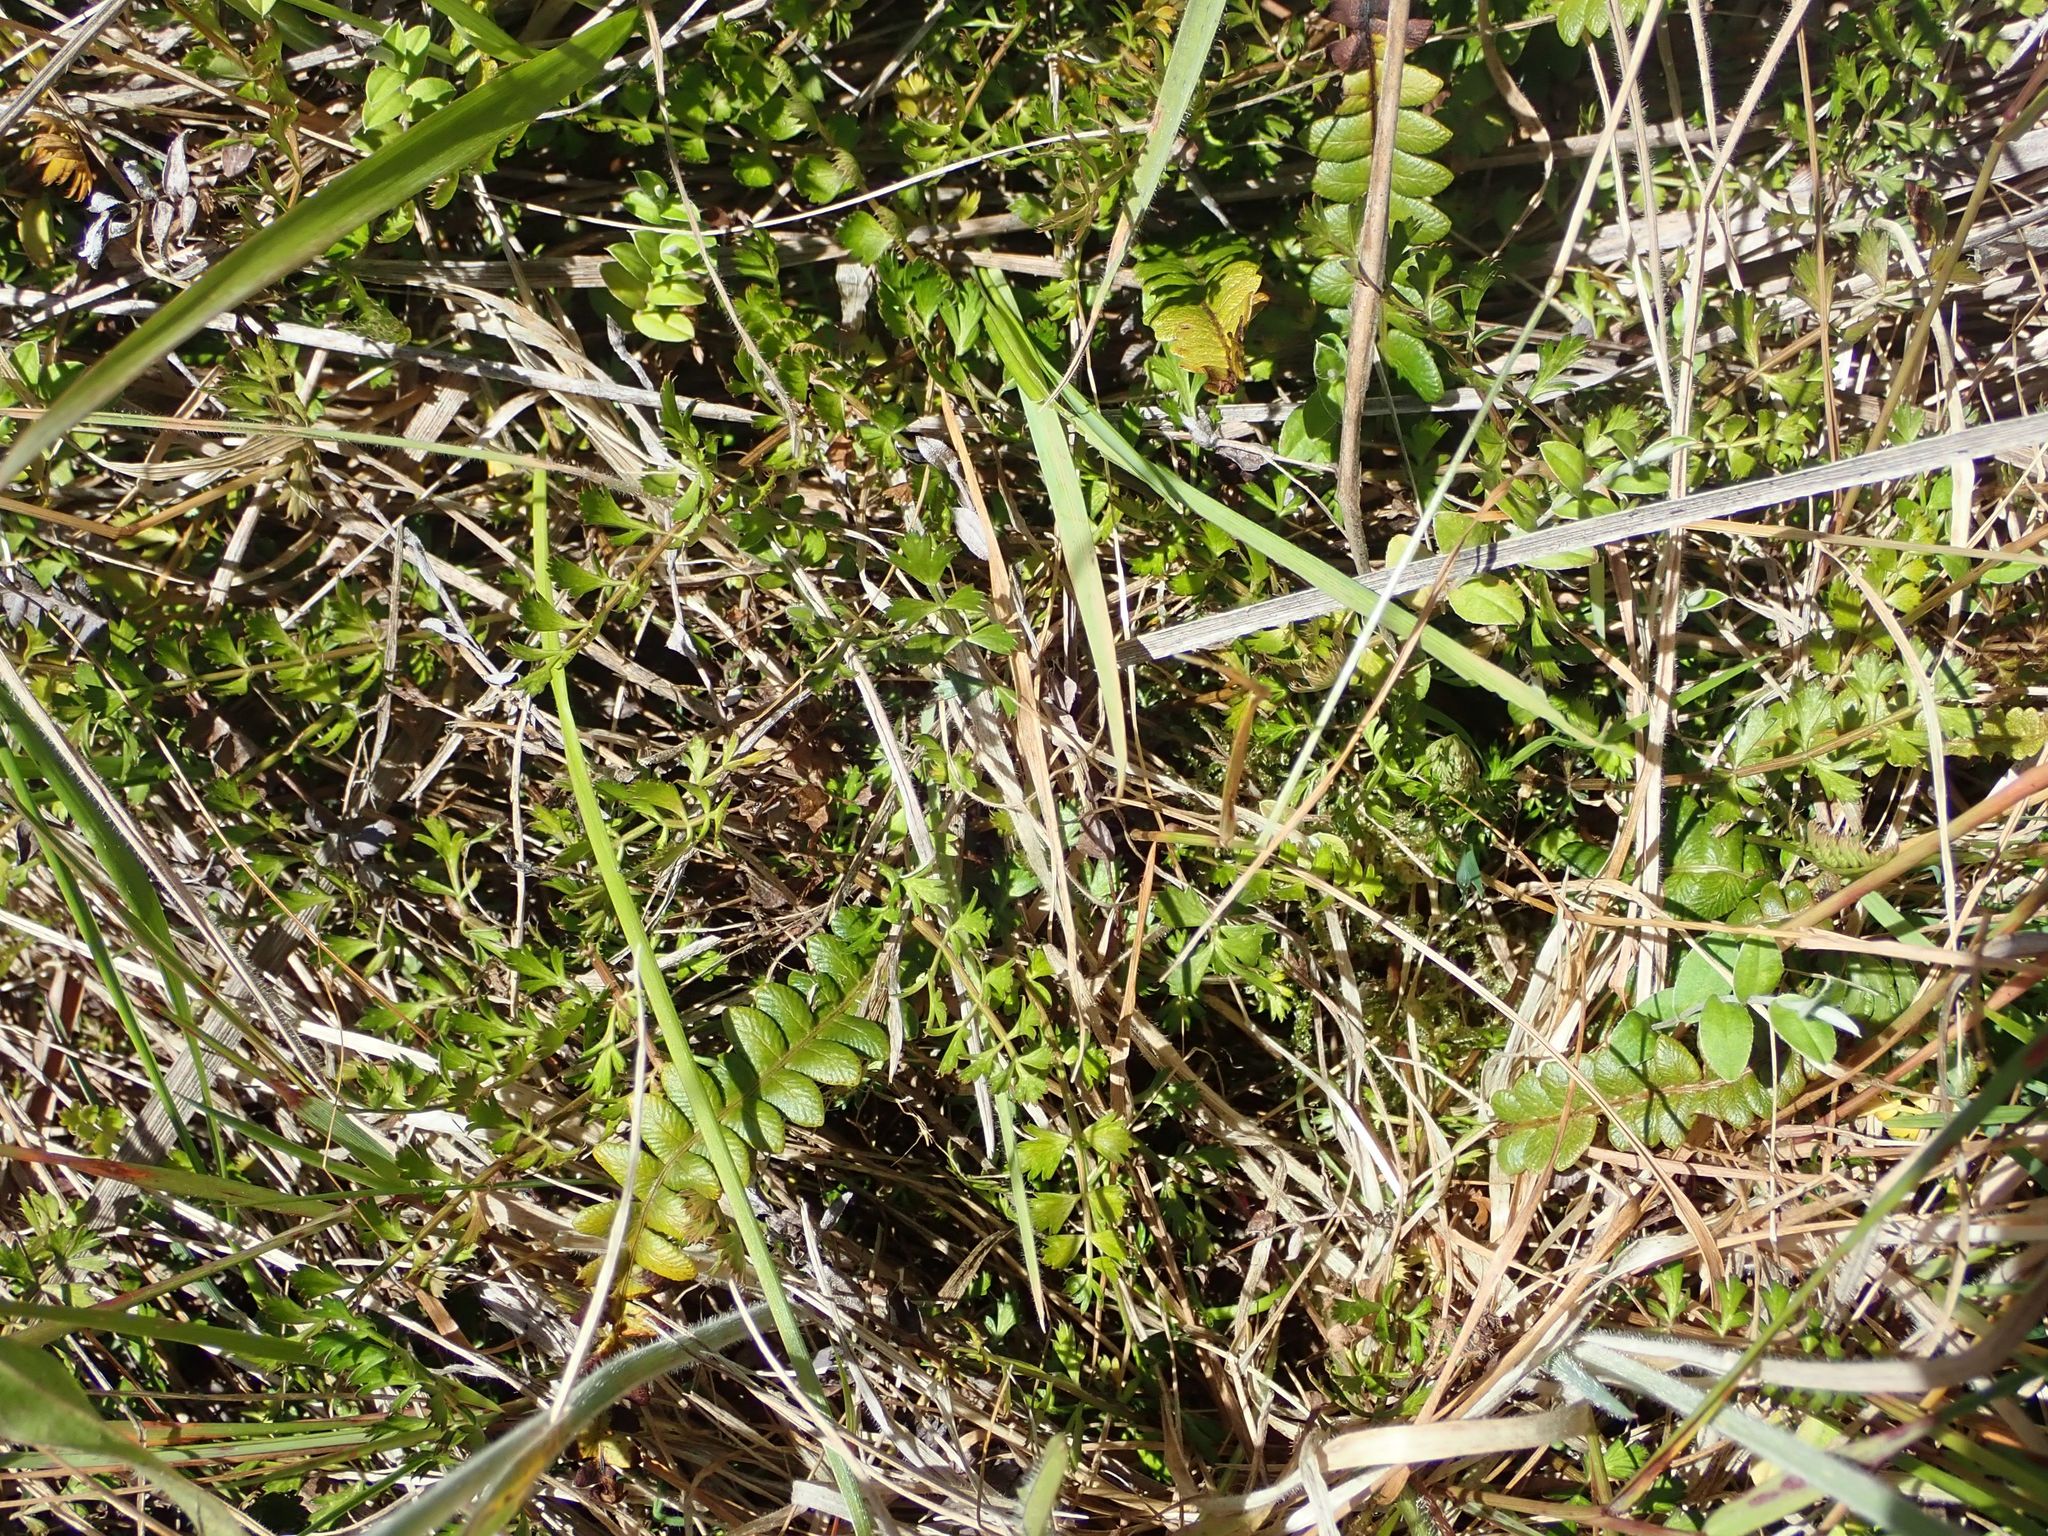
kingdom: Plantae
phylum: Tracheophyta
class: Magnoliopsida
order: Apiales
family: Apiaceae
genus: Anisotome
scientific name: Anisotome aromatica
